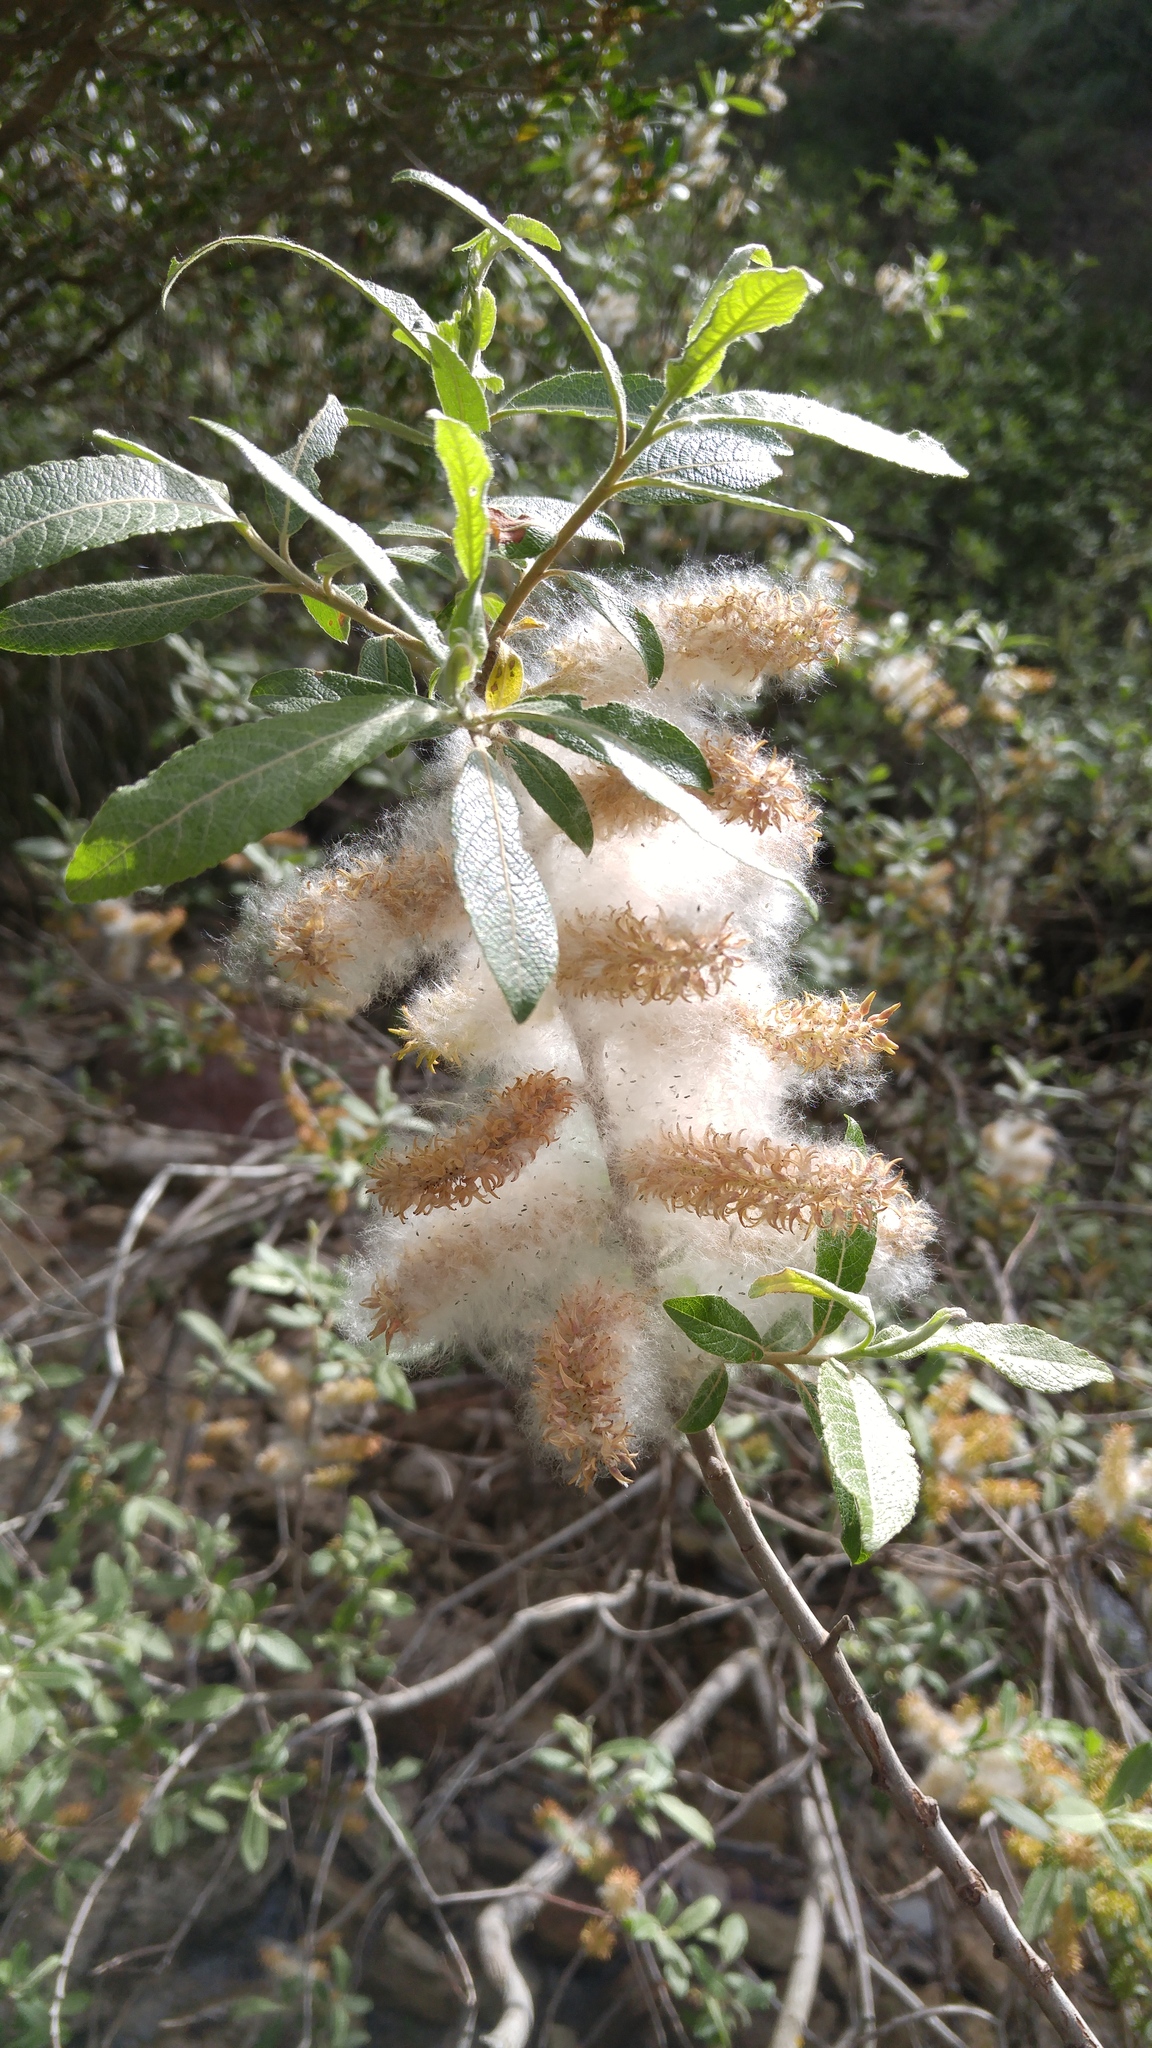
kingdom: Plantae
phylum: Tracheophyta
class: Magnoliopsida
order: Malpighiales
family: Salicaceae
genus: Salix
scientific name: Salix pedicellata
